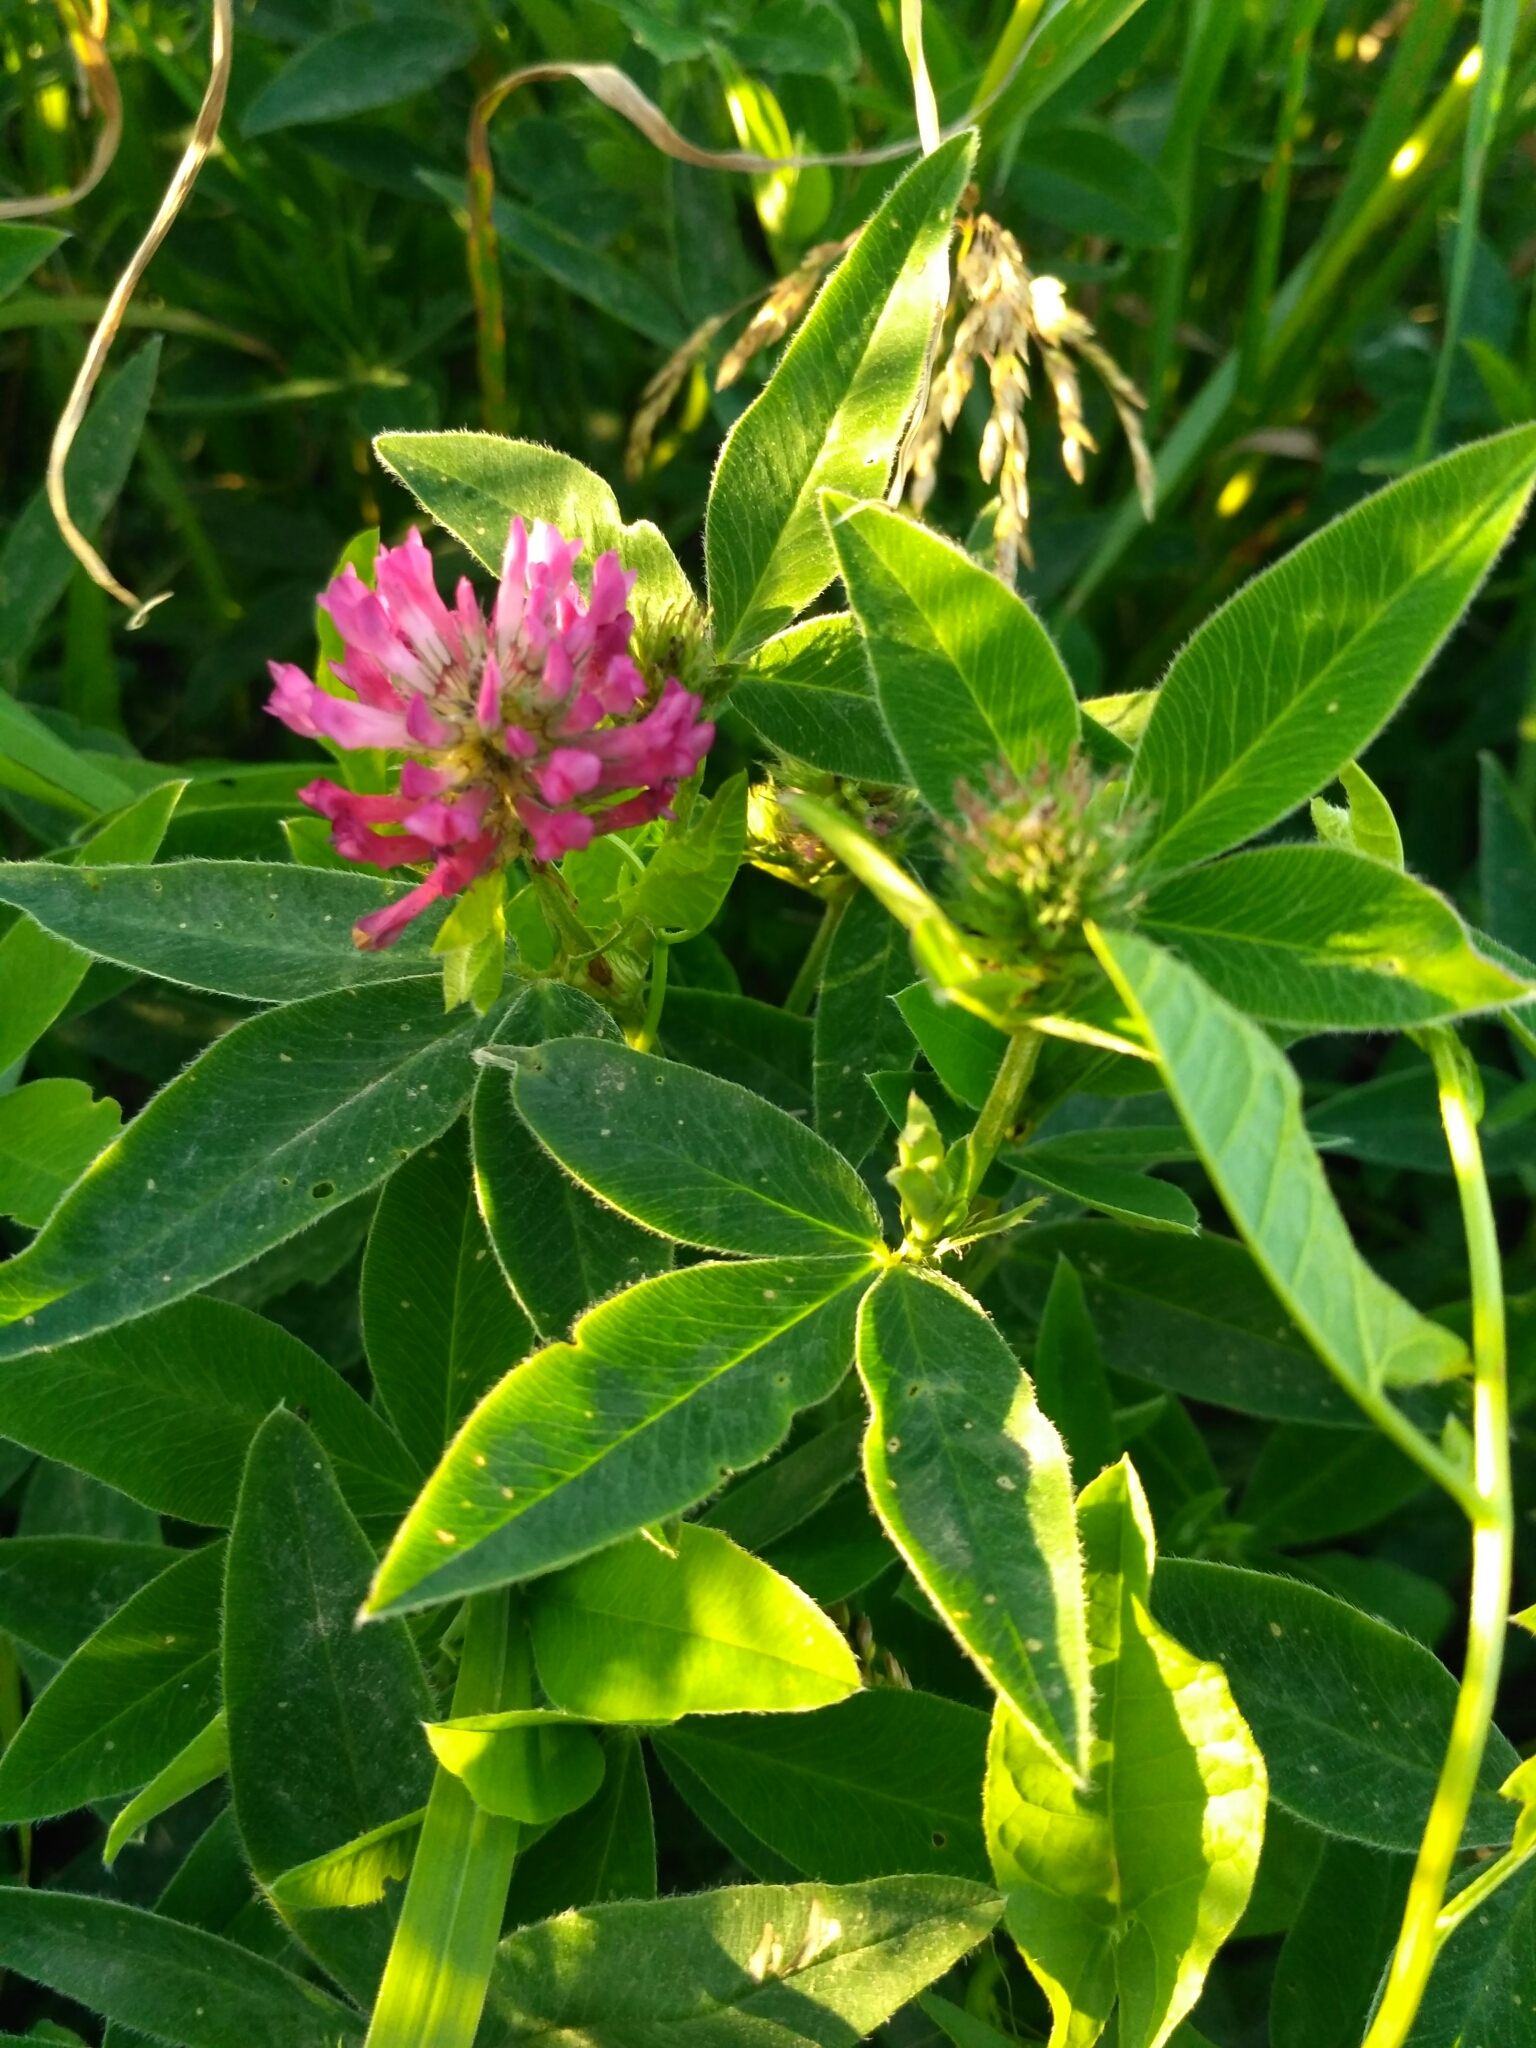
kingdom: Plantae
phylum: Tracheophyta
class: Magnoliopsida
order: Fabales
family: Fabaceae
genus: Trifolium
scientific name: Trifolium medium
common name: Zigzag clover
